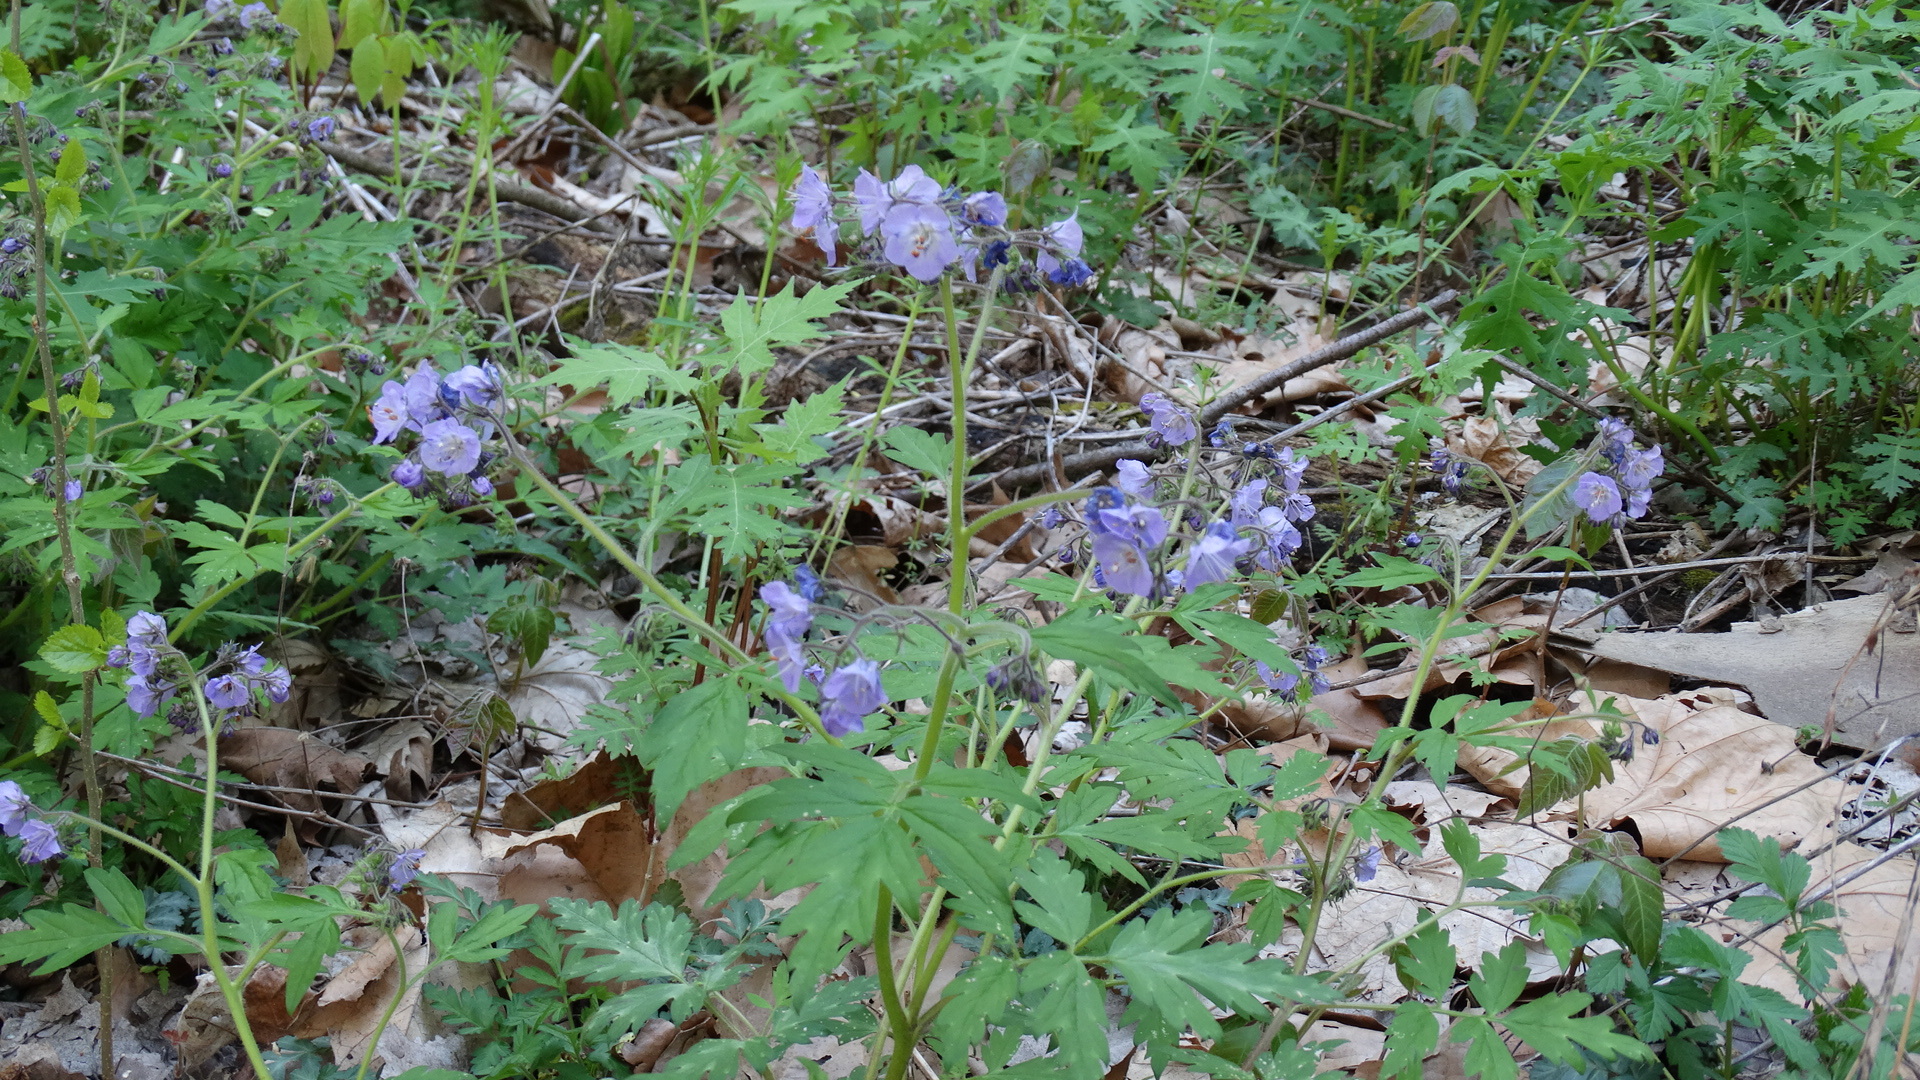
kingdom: Plantae
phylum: Tracheophyta
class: Magnoliopsida
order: Boraginales
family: Hydrophyllaceae
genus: Phacelia
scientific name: Phacelia bipinnatifida
